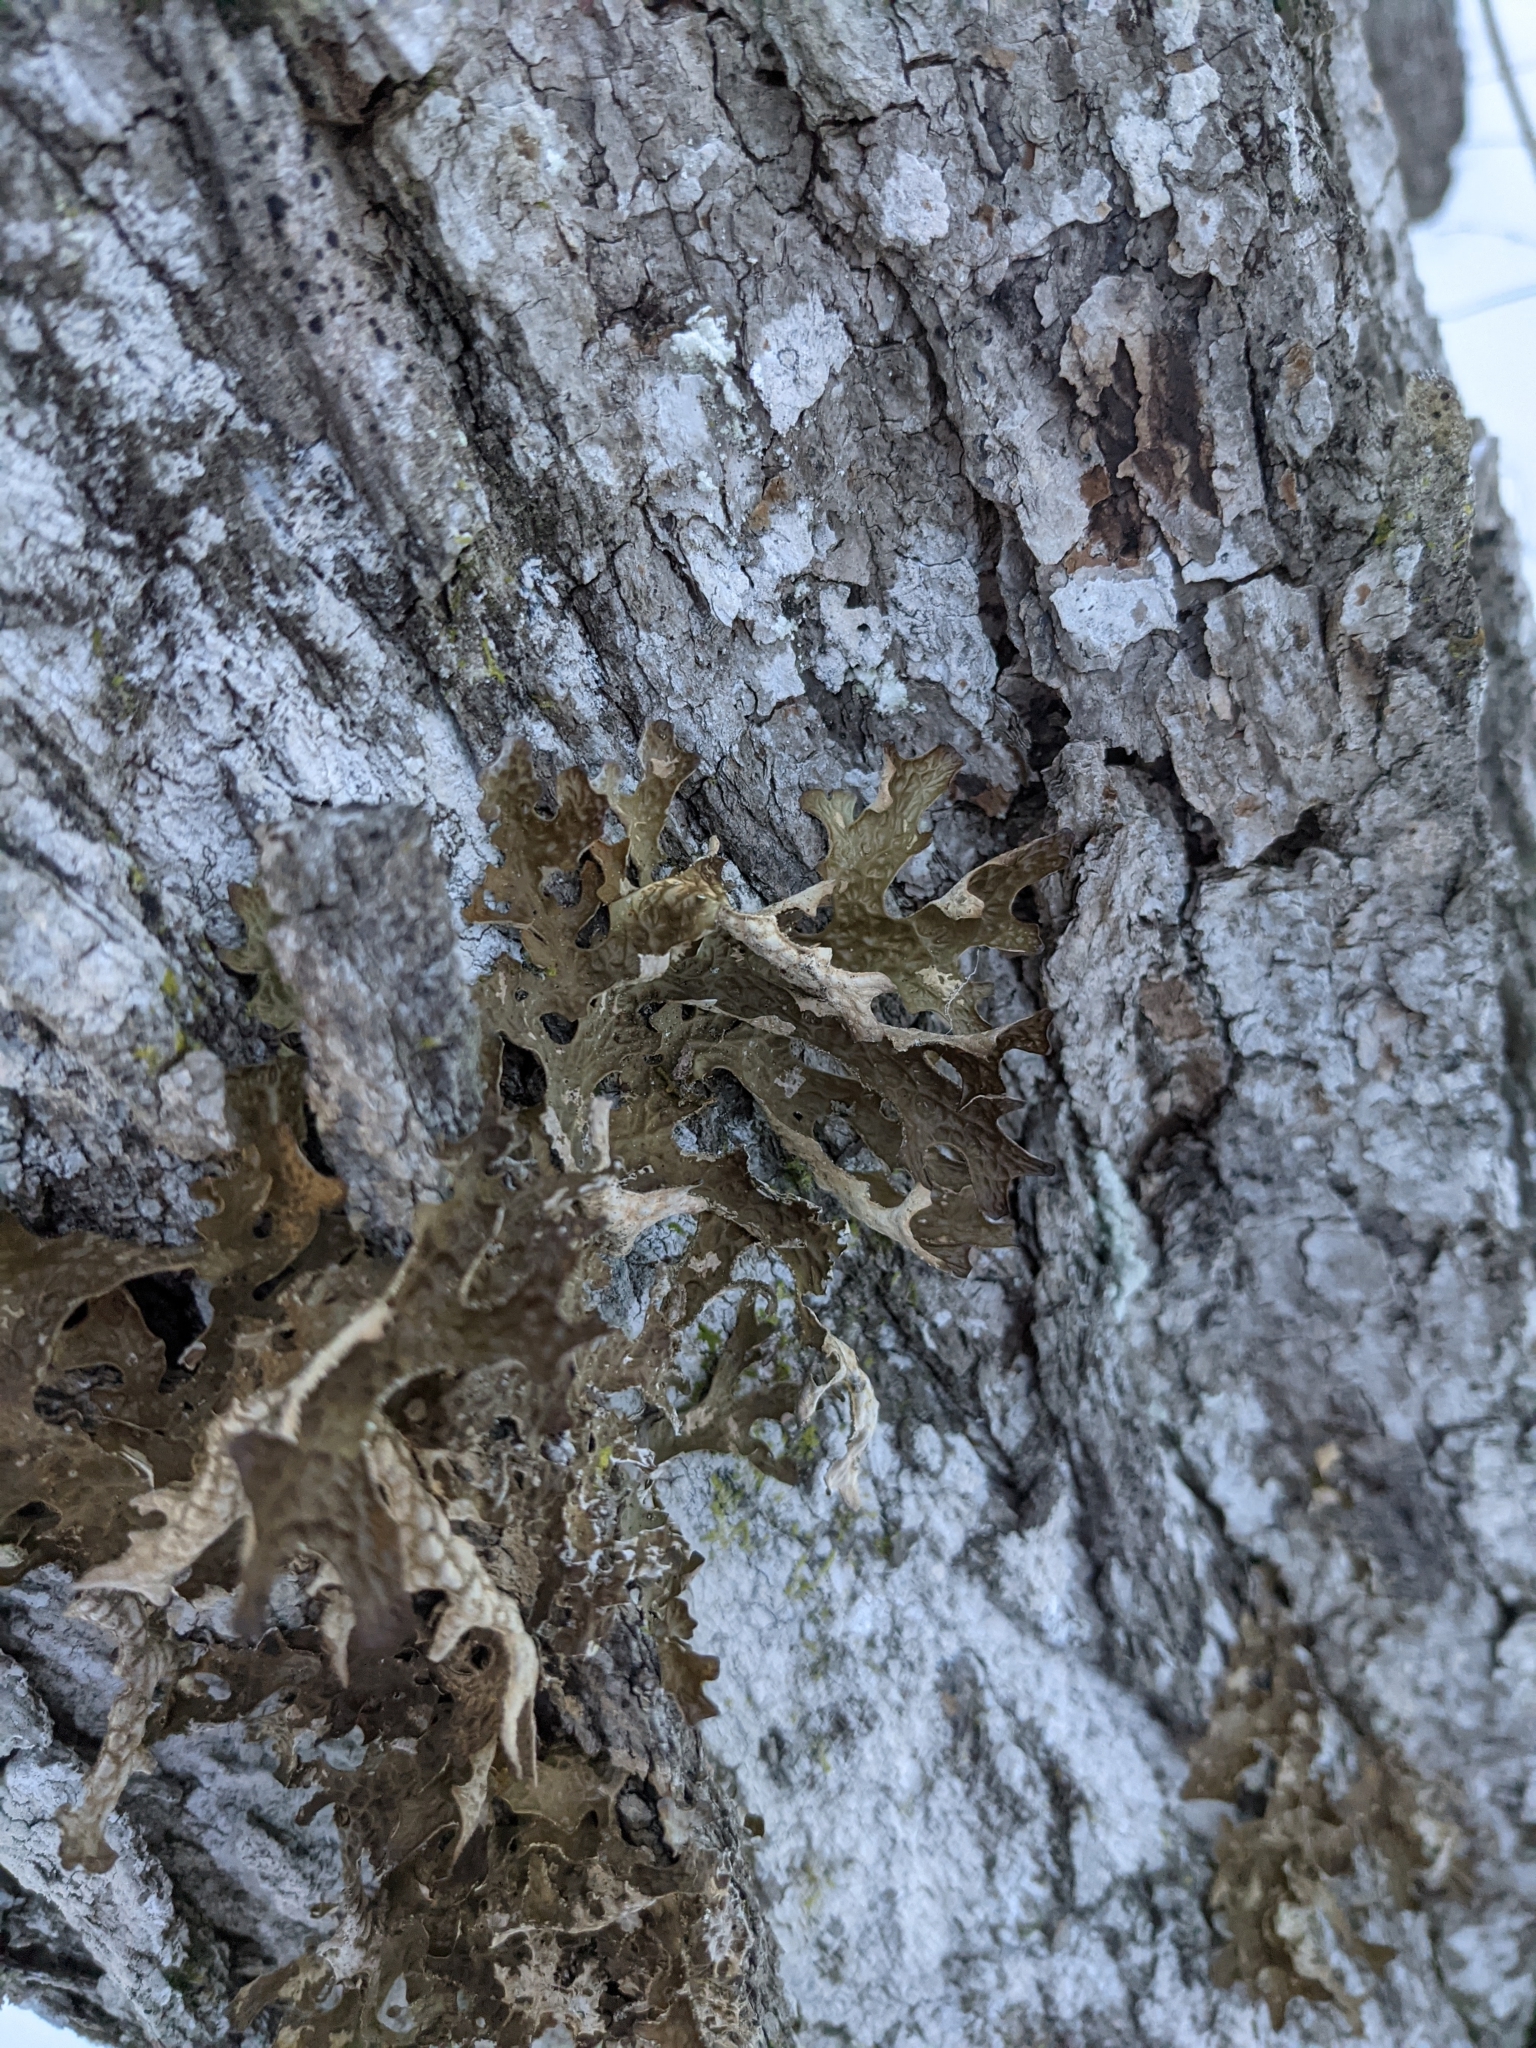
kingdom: Fungi
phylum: Ascomycota
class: Lecanoromycetes
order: Peltigerales
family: Lobariaceae
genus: Lobaria
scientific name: Lobaria pulmonaria
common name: Lungwort
